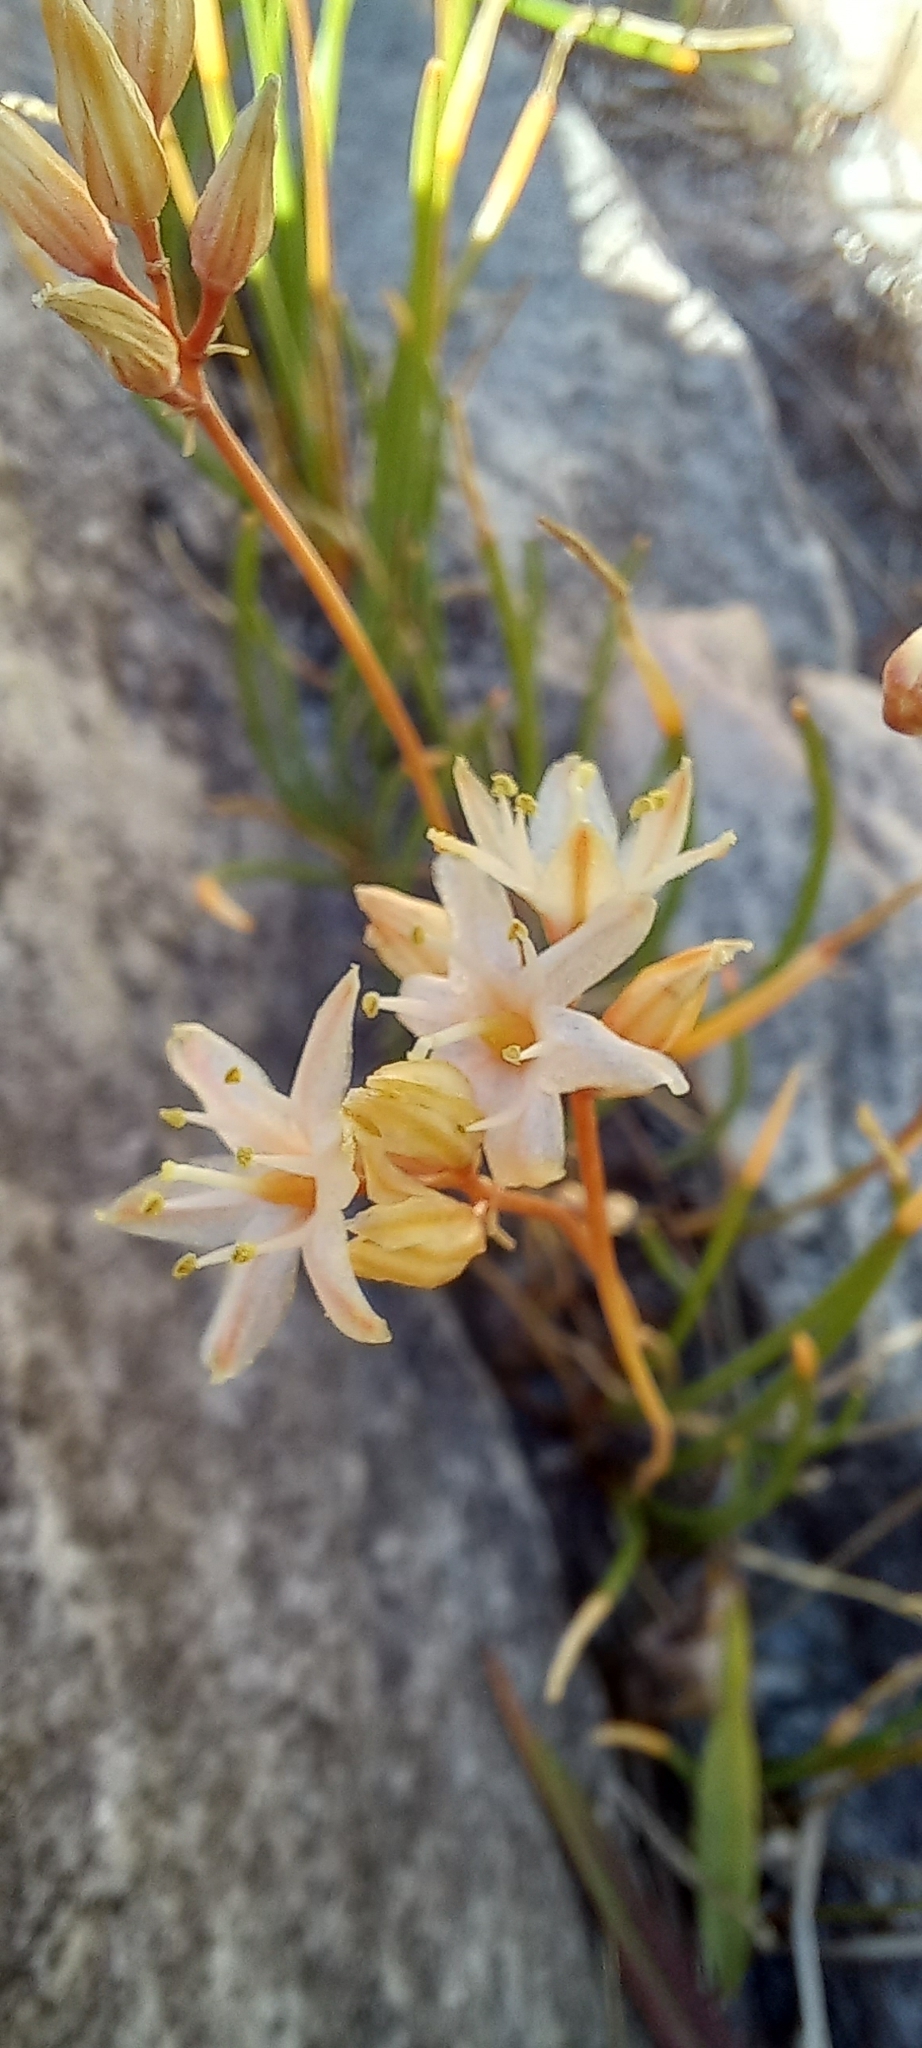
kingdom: Plantae
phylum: Tracheophyta
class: Liliopsida
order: Asparagales
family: Asparagaceae
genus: Drimia
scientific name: Drimia salteri
